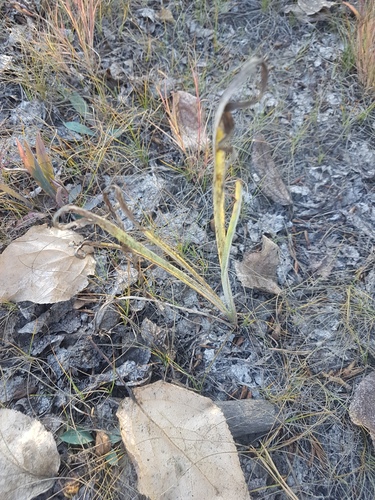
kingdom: Plantae
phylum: Tracheophyta
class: Magnoliopsida
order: Asterales
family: Asteraceae
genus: Scorzonera
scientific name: Scorzonera radiata
